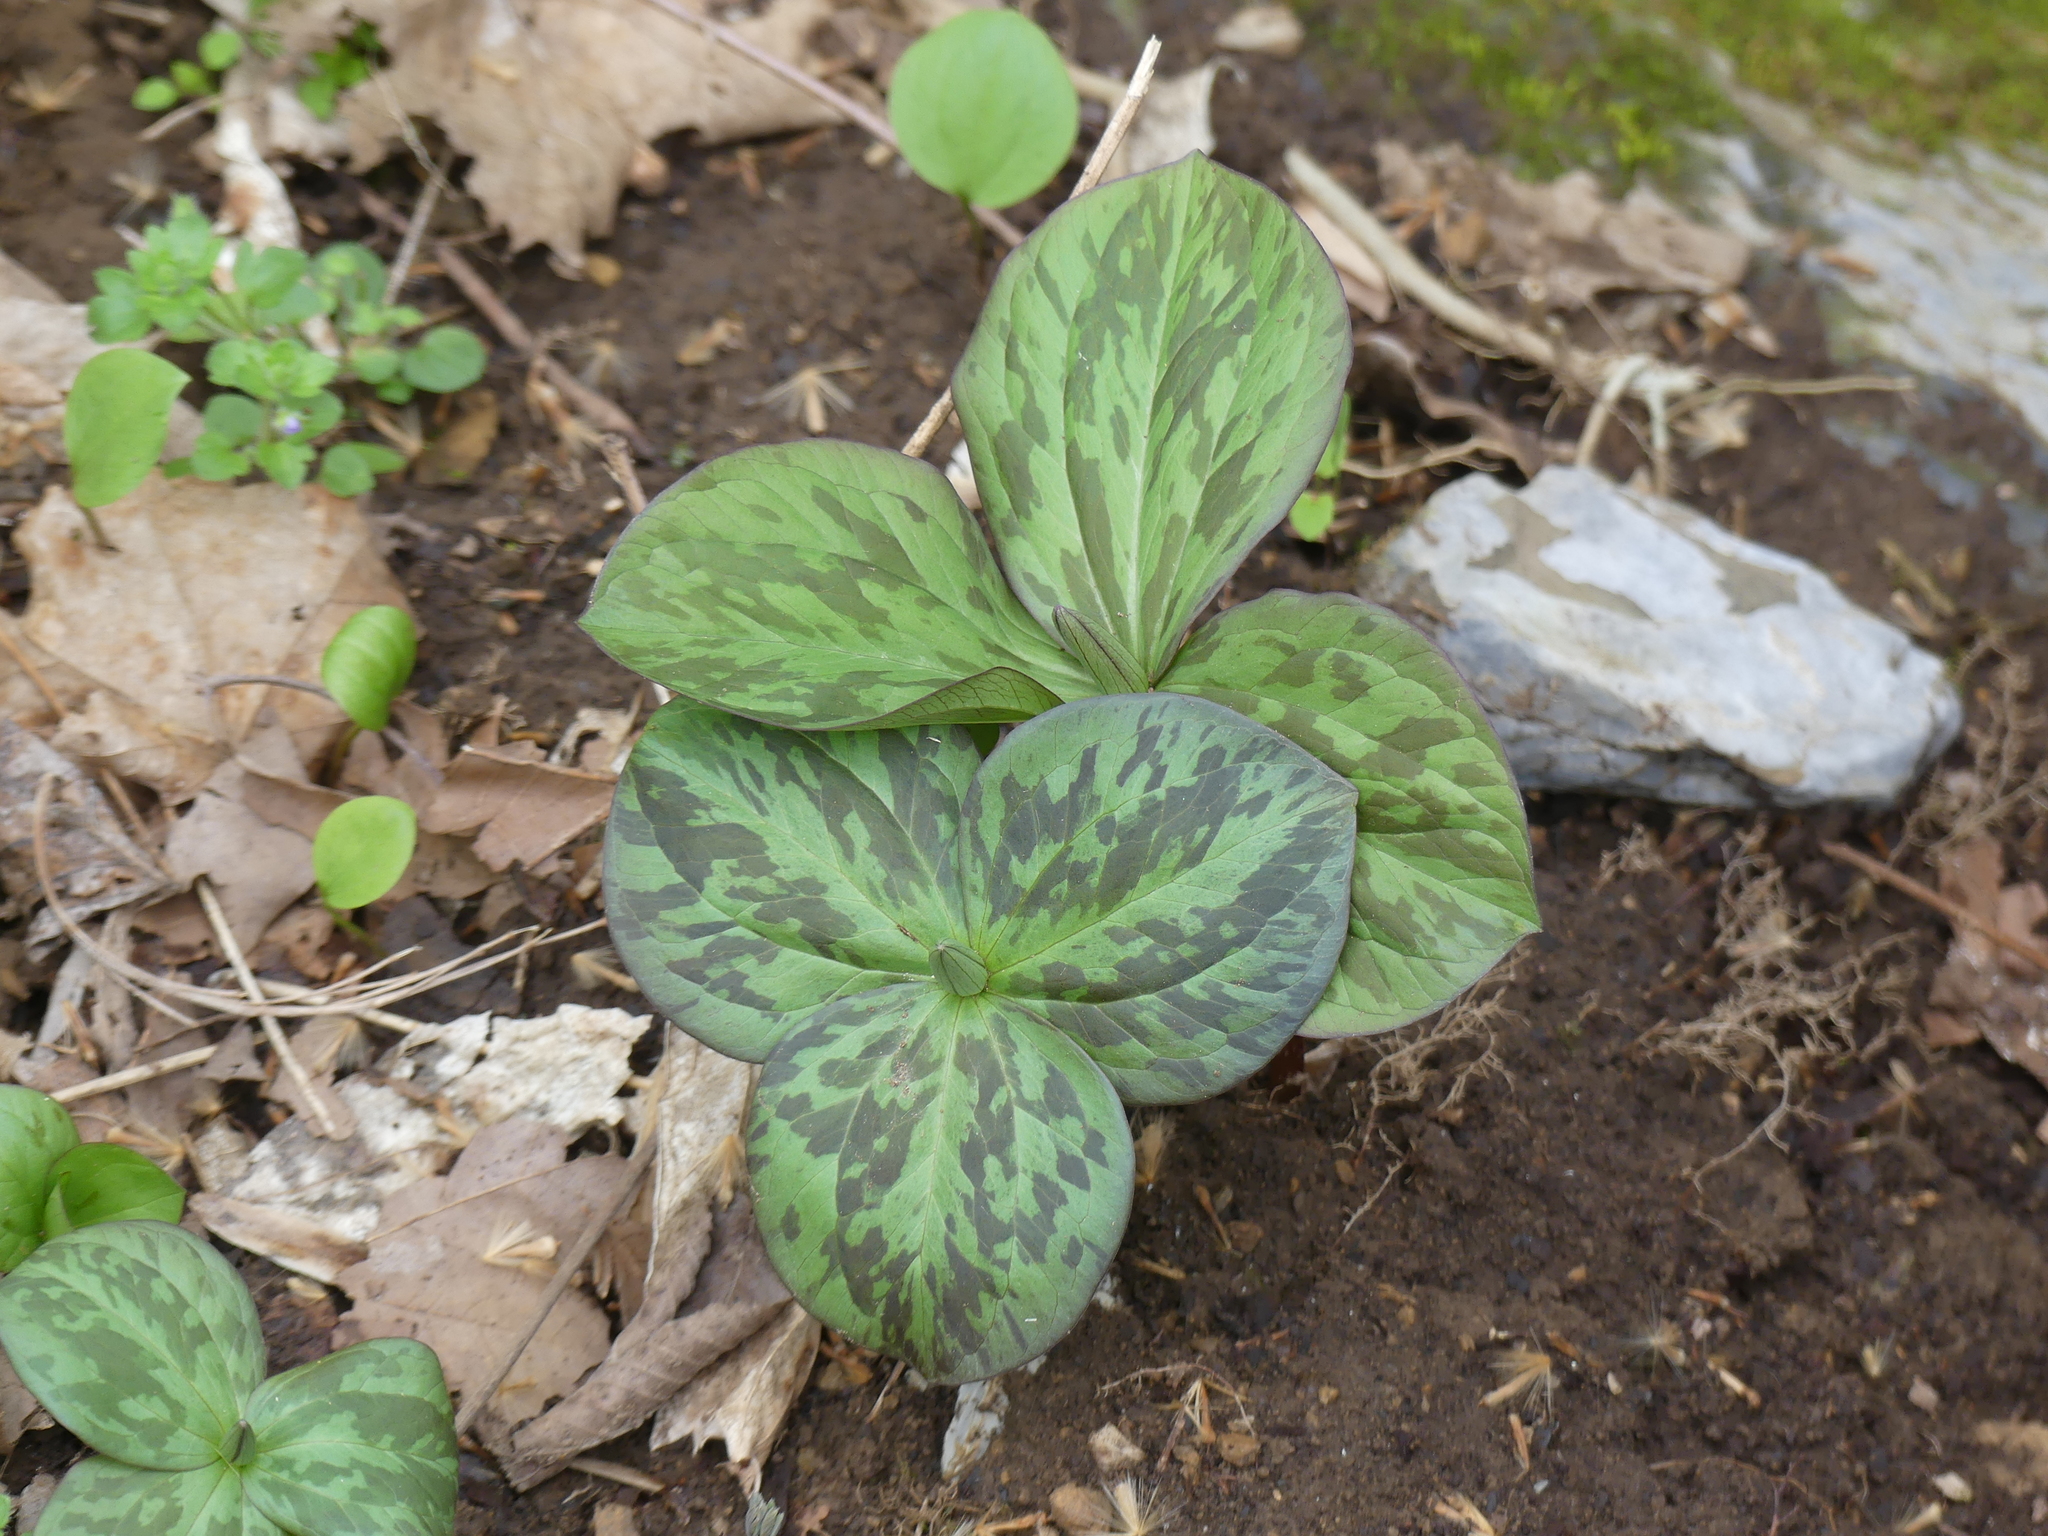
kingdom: Plantae
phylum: Tracheophyta
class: Liliopsida
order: Liliales
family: Melanthiaceae
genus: Trillium
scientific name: Trillium sessile
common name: Sessile trillium
